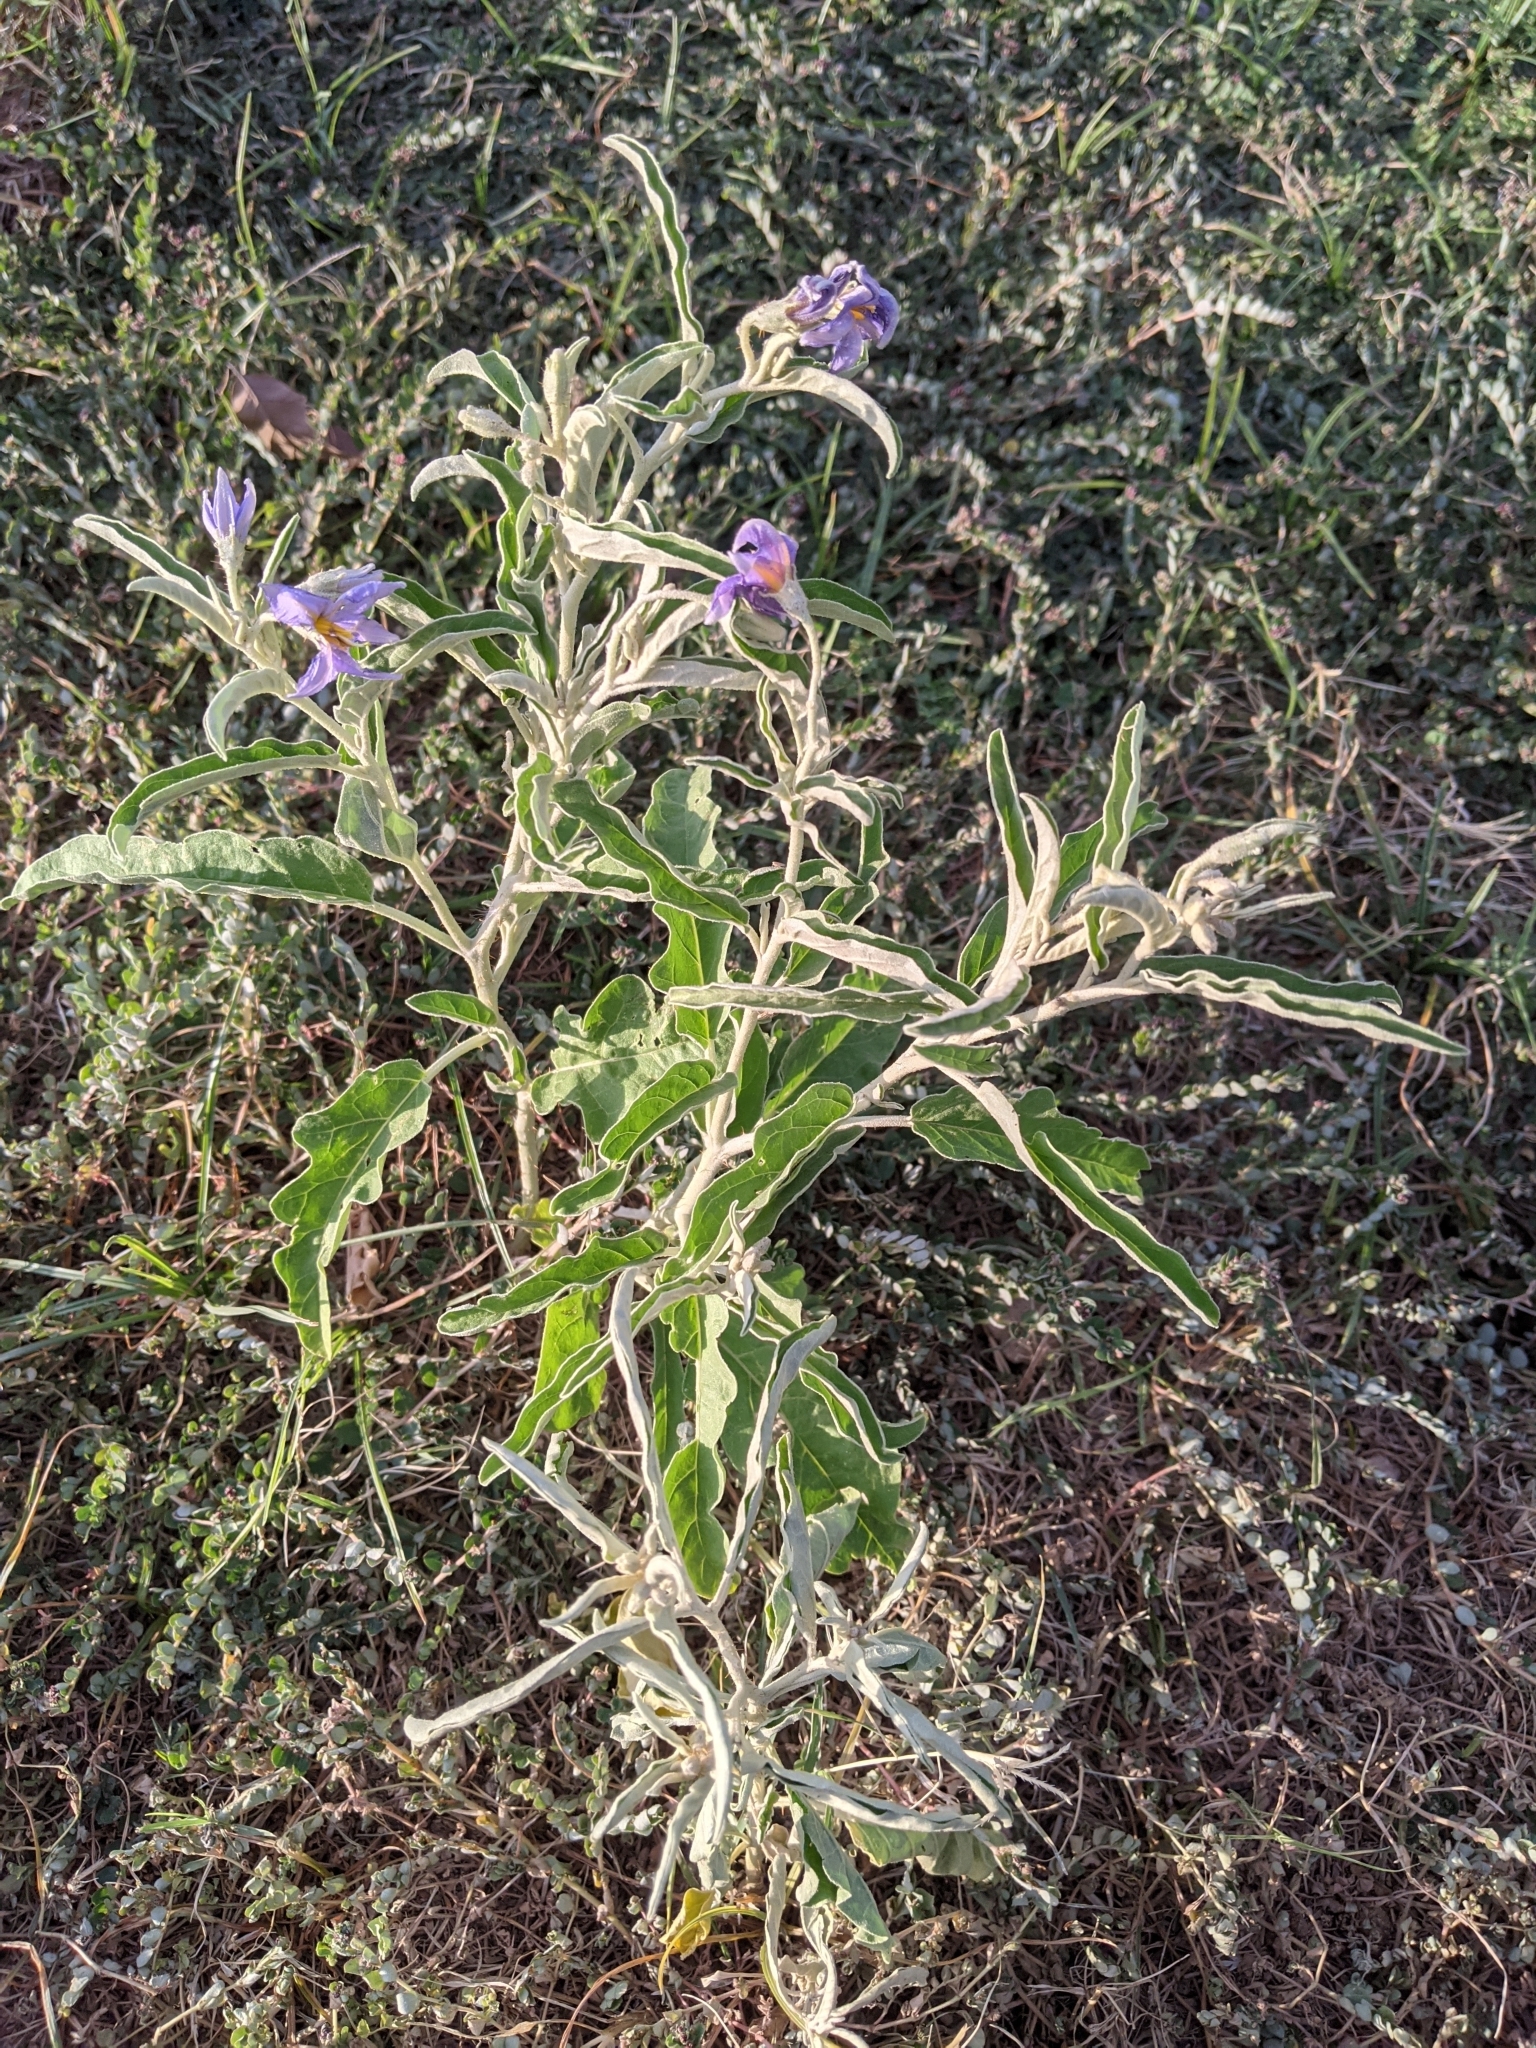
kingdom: Plantae
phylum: Tracheophyta
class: Magnoliopsida
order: Solanales
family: Solanaceae
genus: Solanum
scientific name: Solanum elaeagnifolium
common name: Silverleaf nightshade
